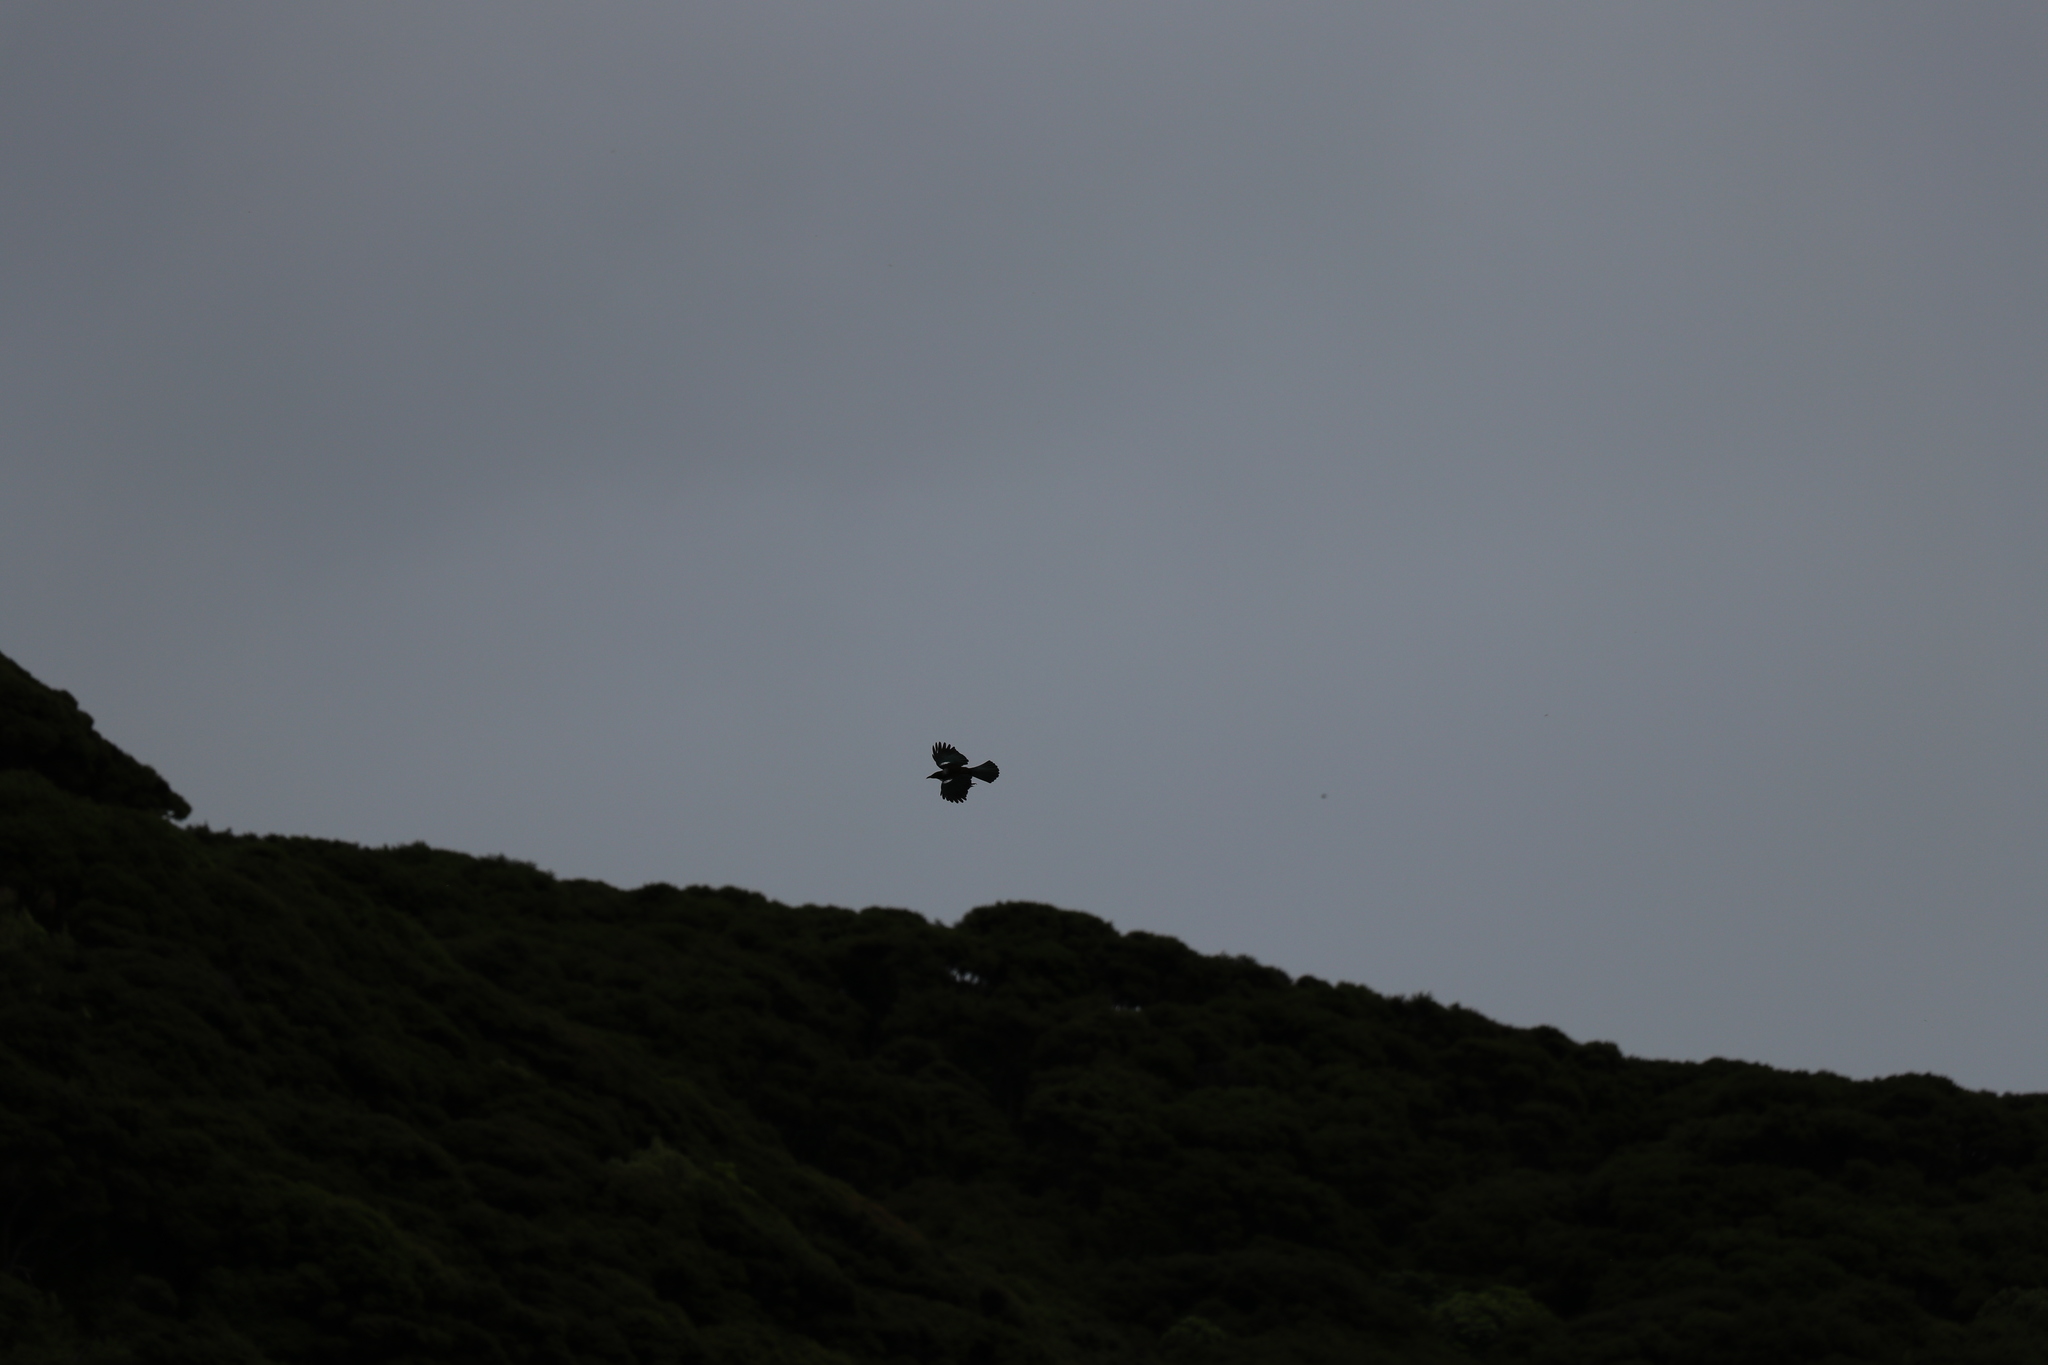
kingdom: Animalia
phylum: Chordata
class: Aves
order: Passeriformes
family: Meliphagidae
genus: Prosthemadera
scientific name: Prosthemadera novaeseelandiae
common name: Tui
